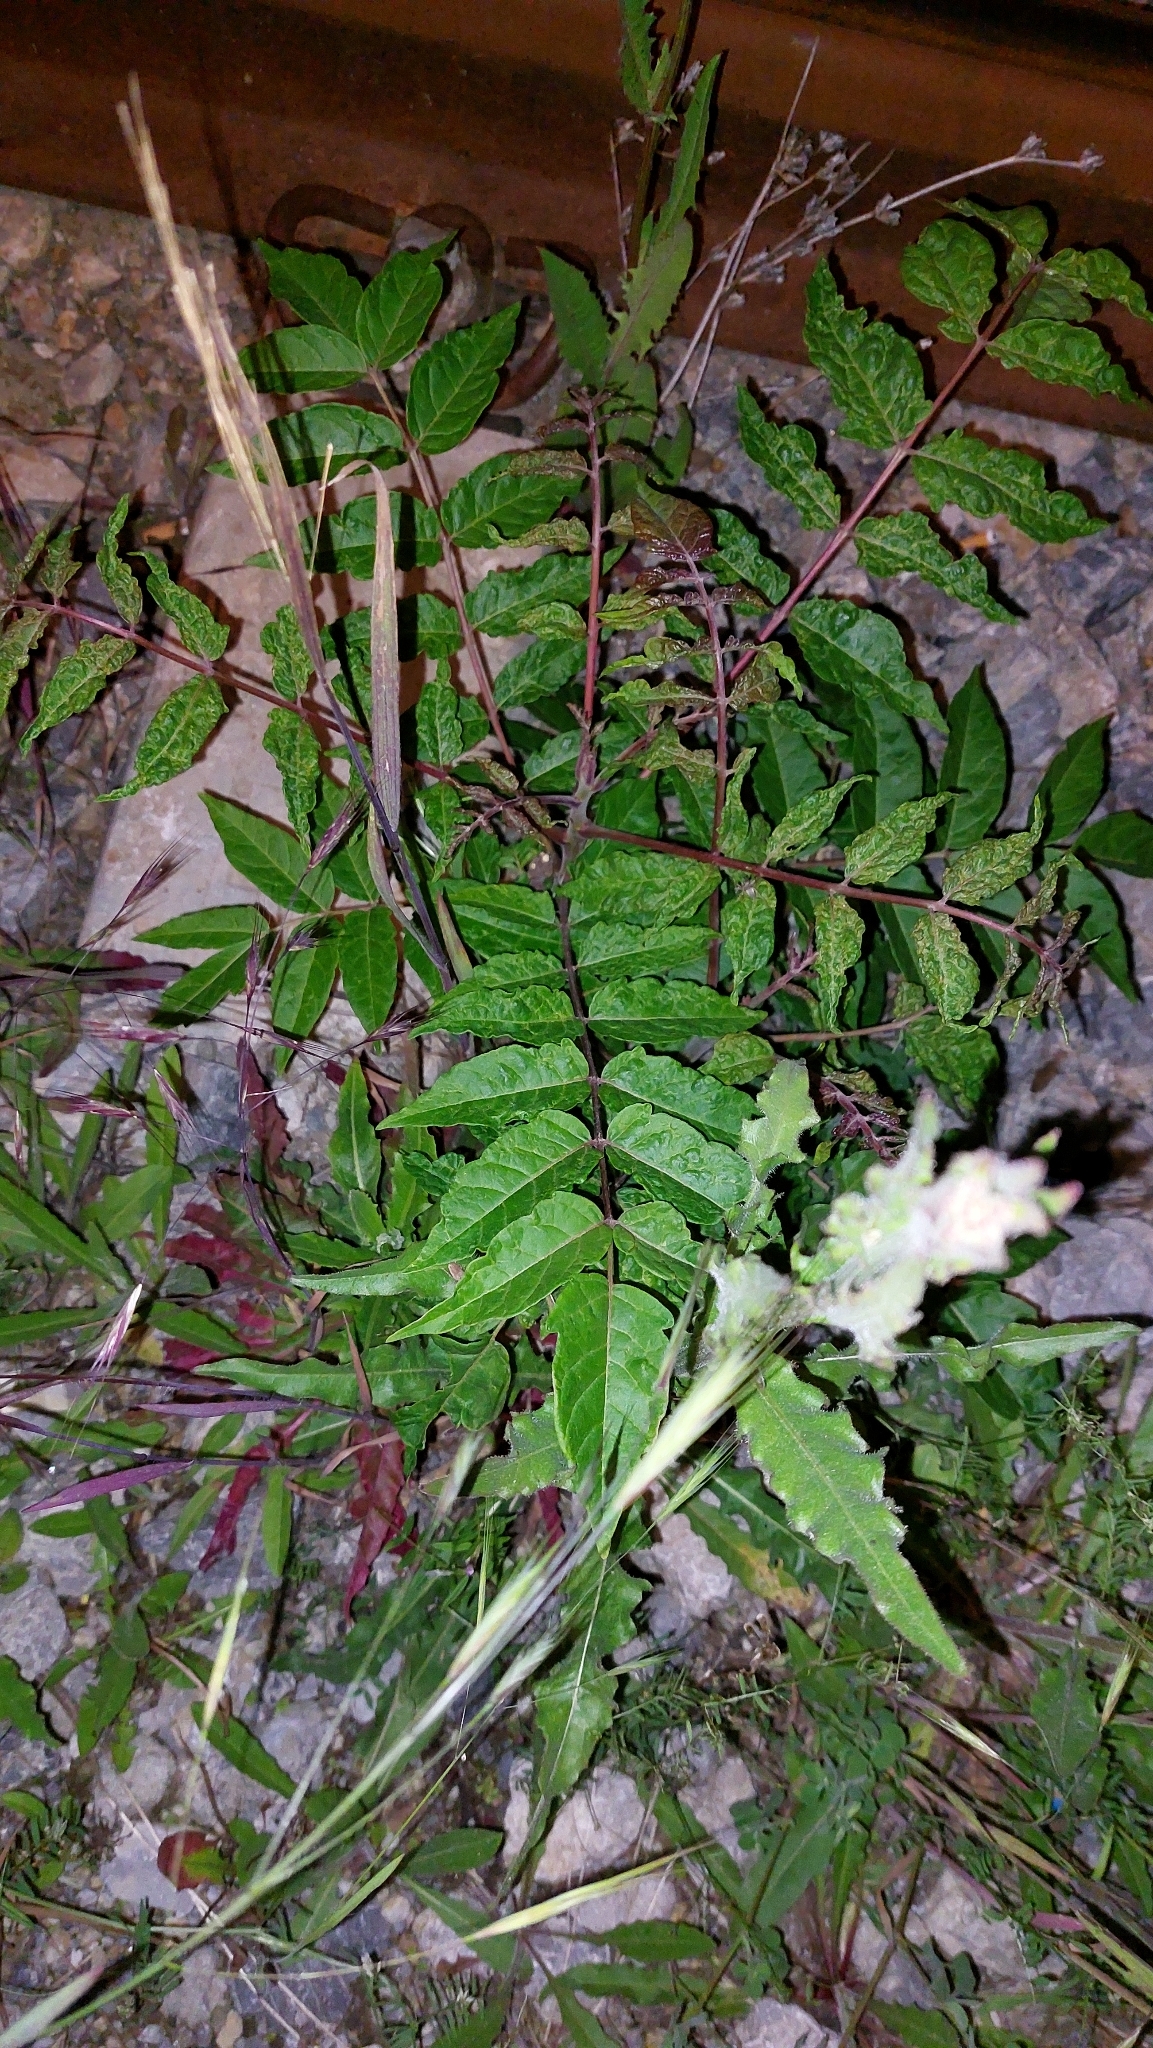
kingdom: Plantae
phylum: Tracheophyta
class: Magnoliopsida
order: Sapindales
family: Simaroubaceae
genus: Ailanthus
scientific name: Ailanthus altissima
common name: Tree-of-heaven
